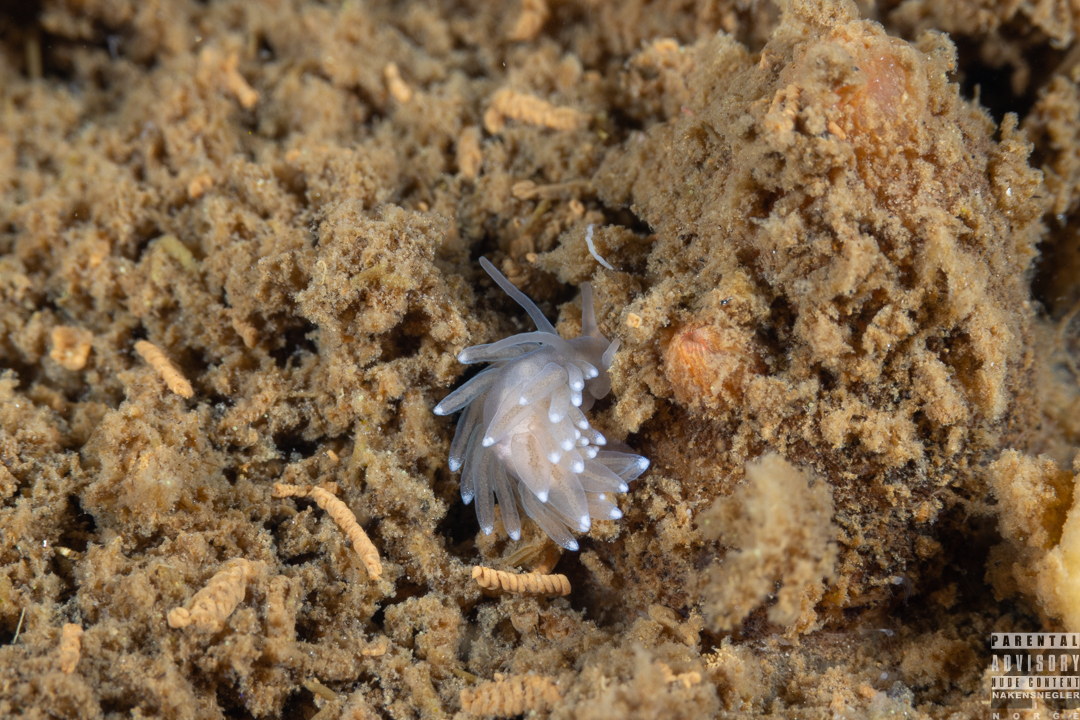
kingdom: Animalia
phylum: Mollusca
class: Gastropoda
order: Nudibranchia
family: Cuthonidae
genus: Bohuslania
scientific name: Bohuslania matsmichaeli
